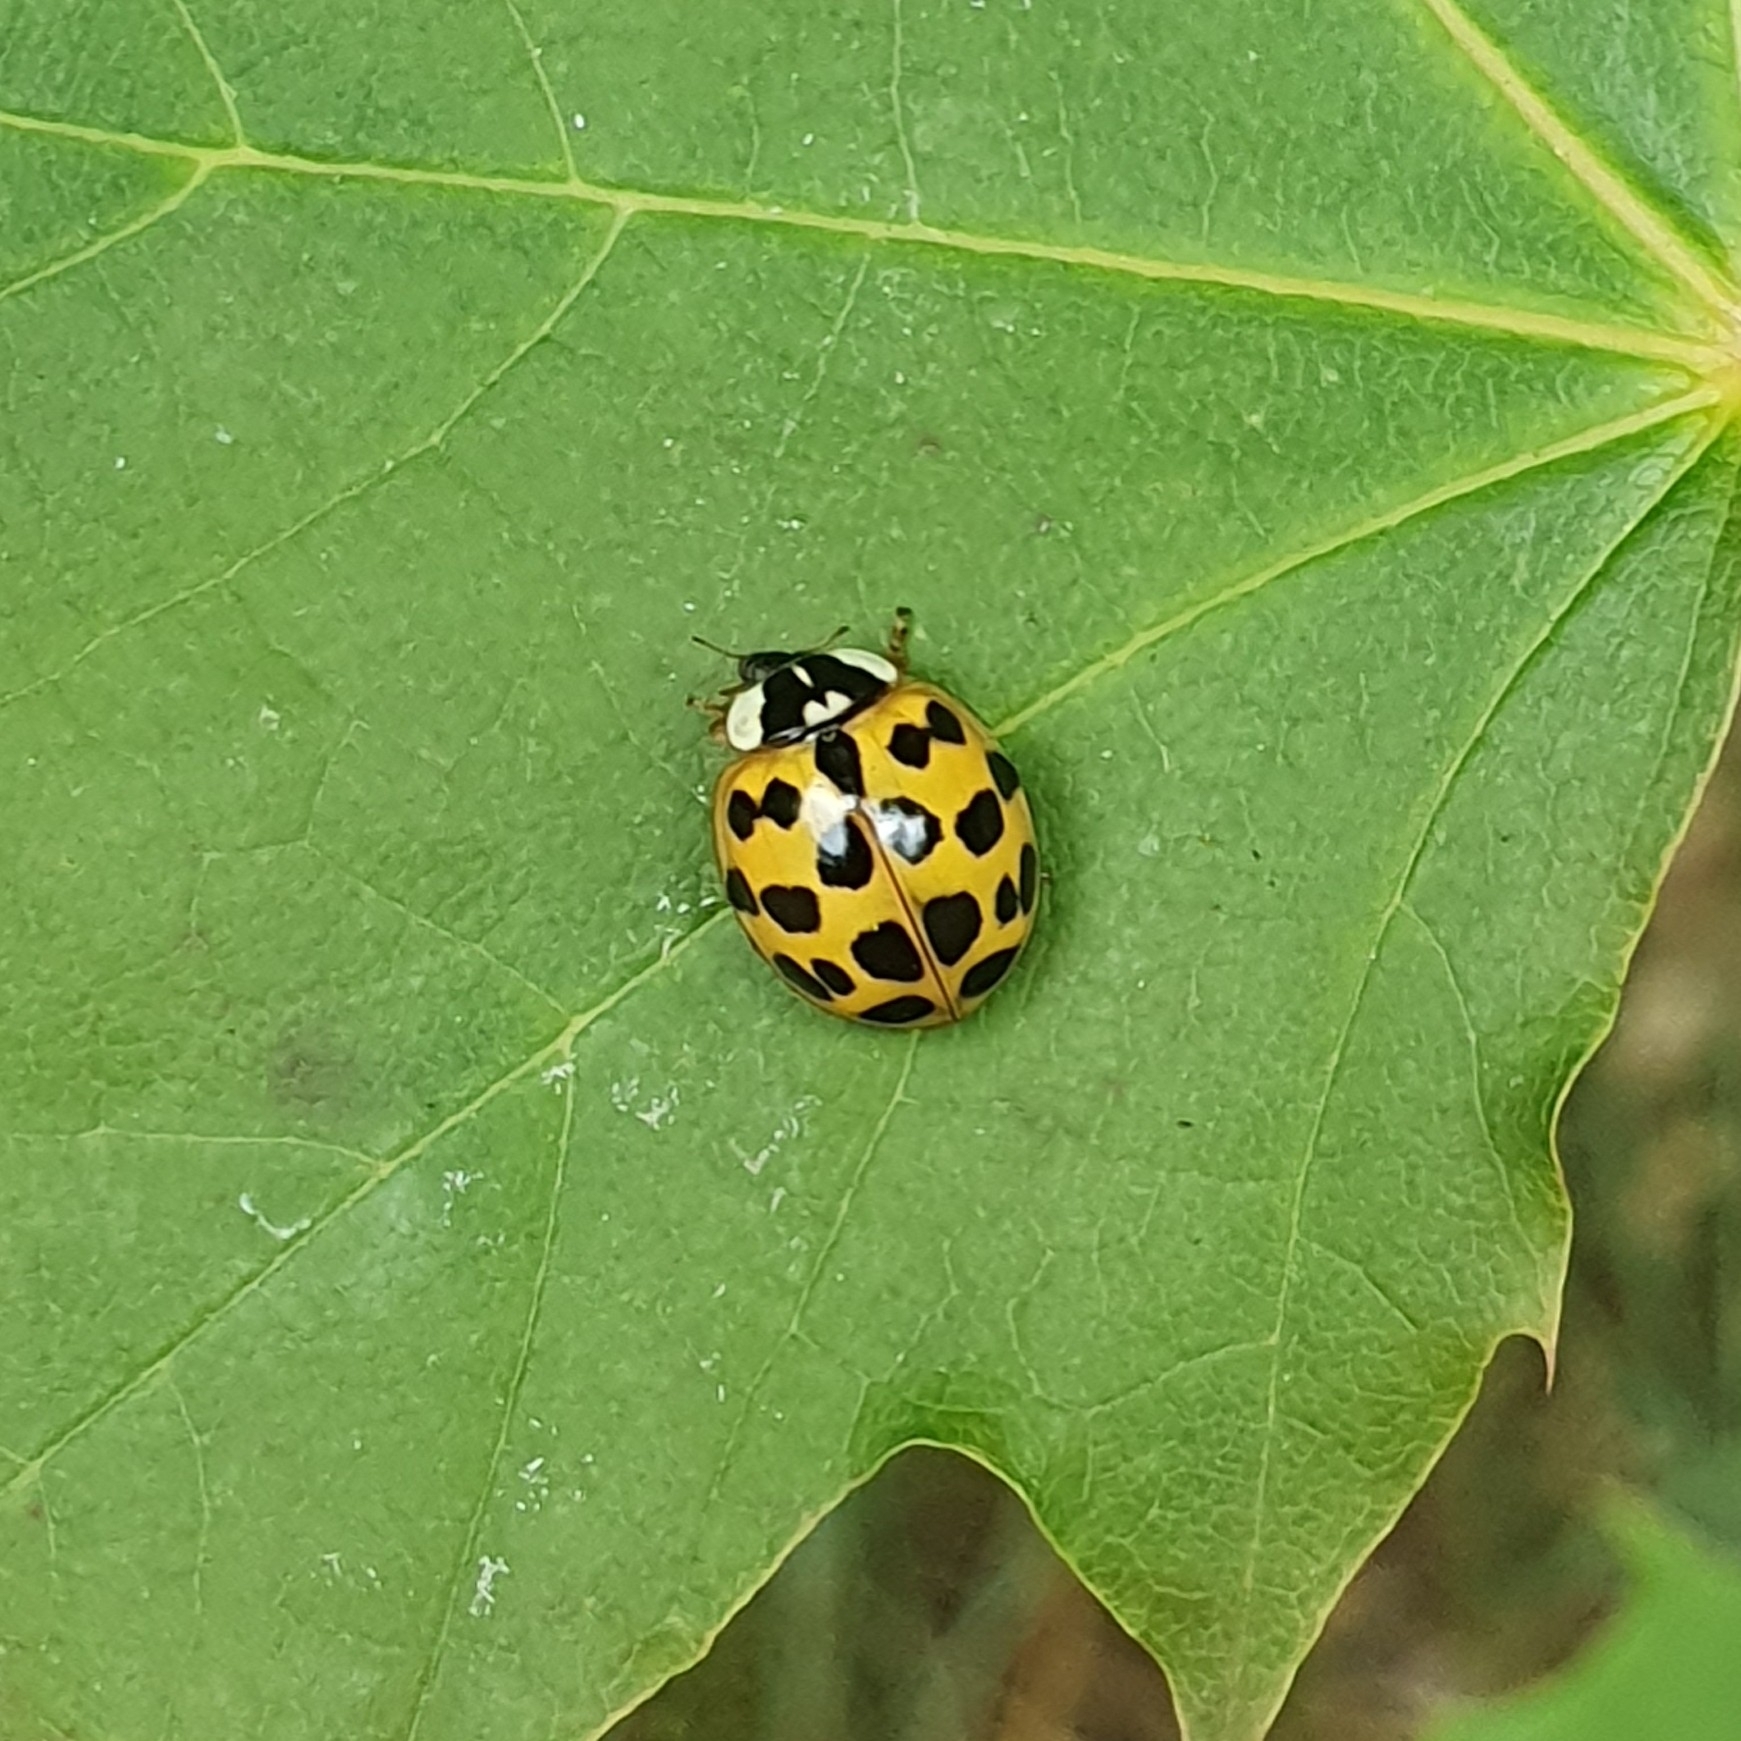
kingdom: Animalia
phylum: Arthropoda
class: Insecta
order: Coleoptera
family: Coccinellidae
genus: Harmonia
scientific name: Harmonia axyridis
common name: Harlequin ladybird
